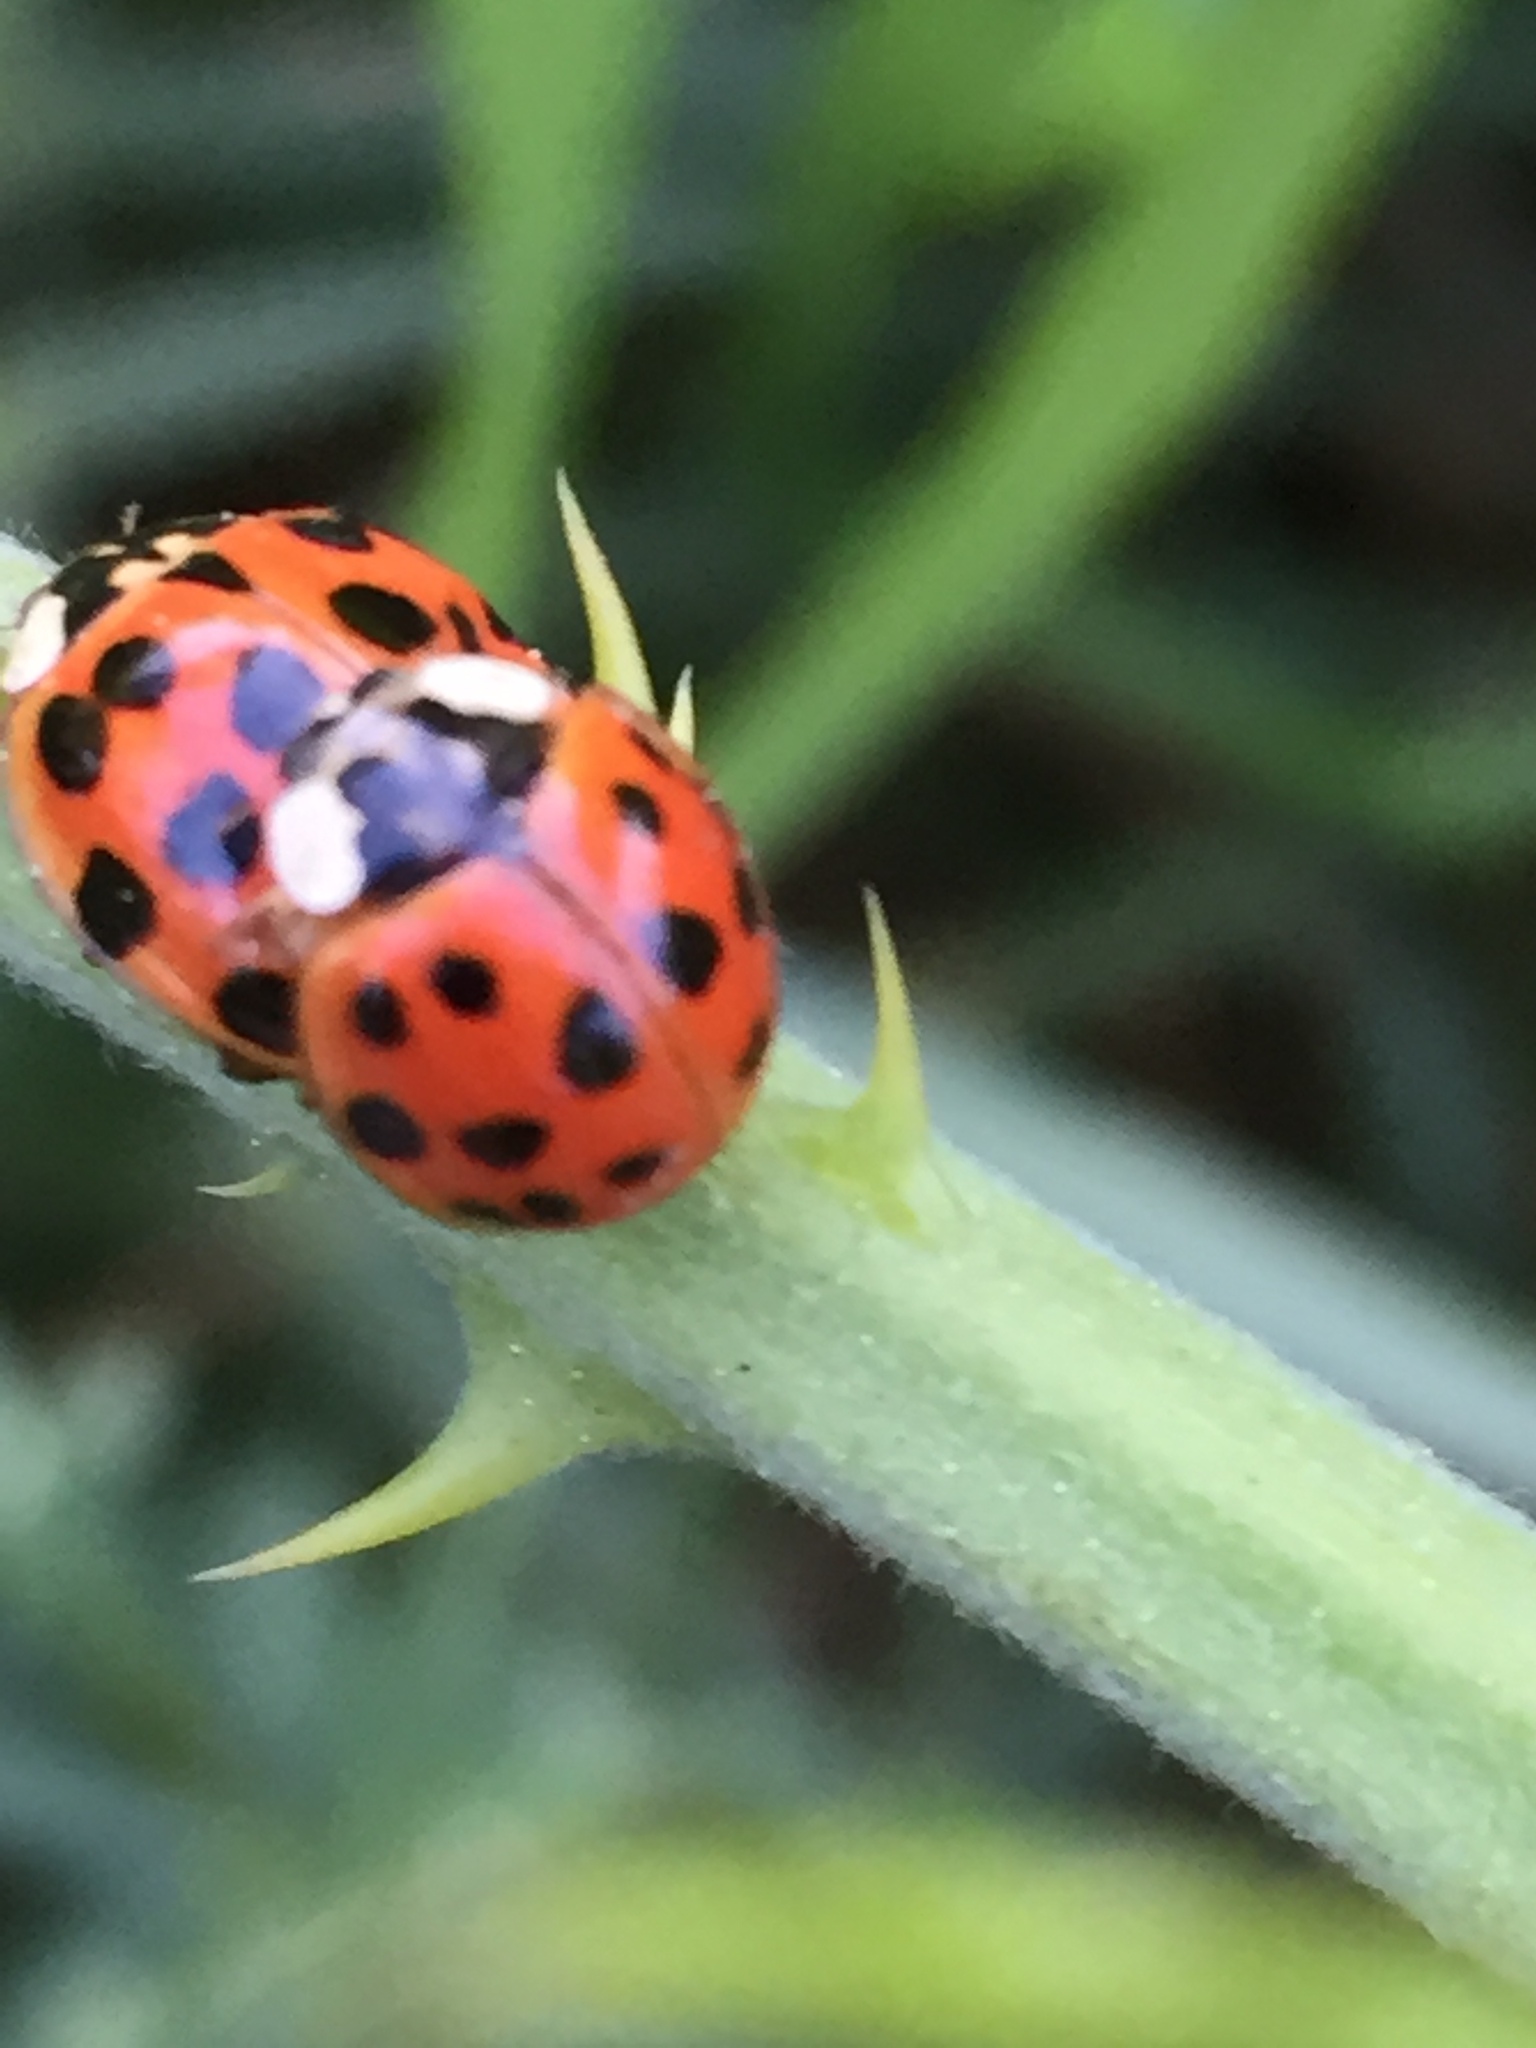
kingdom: Animalia
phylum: Arthropoda
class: Insecta
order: Coleoptera
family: Coccinellidae
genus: Harmonia
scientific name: Harmonia axyridis
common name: Harlequin ladybird
